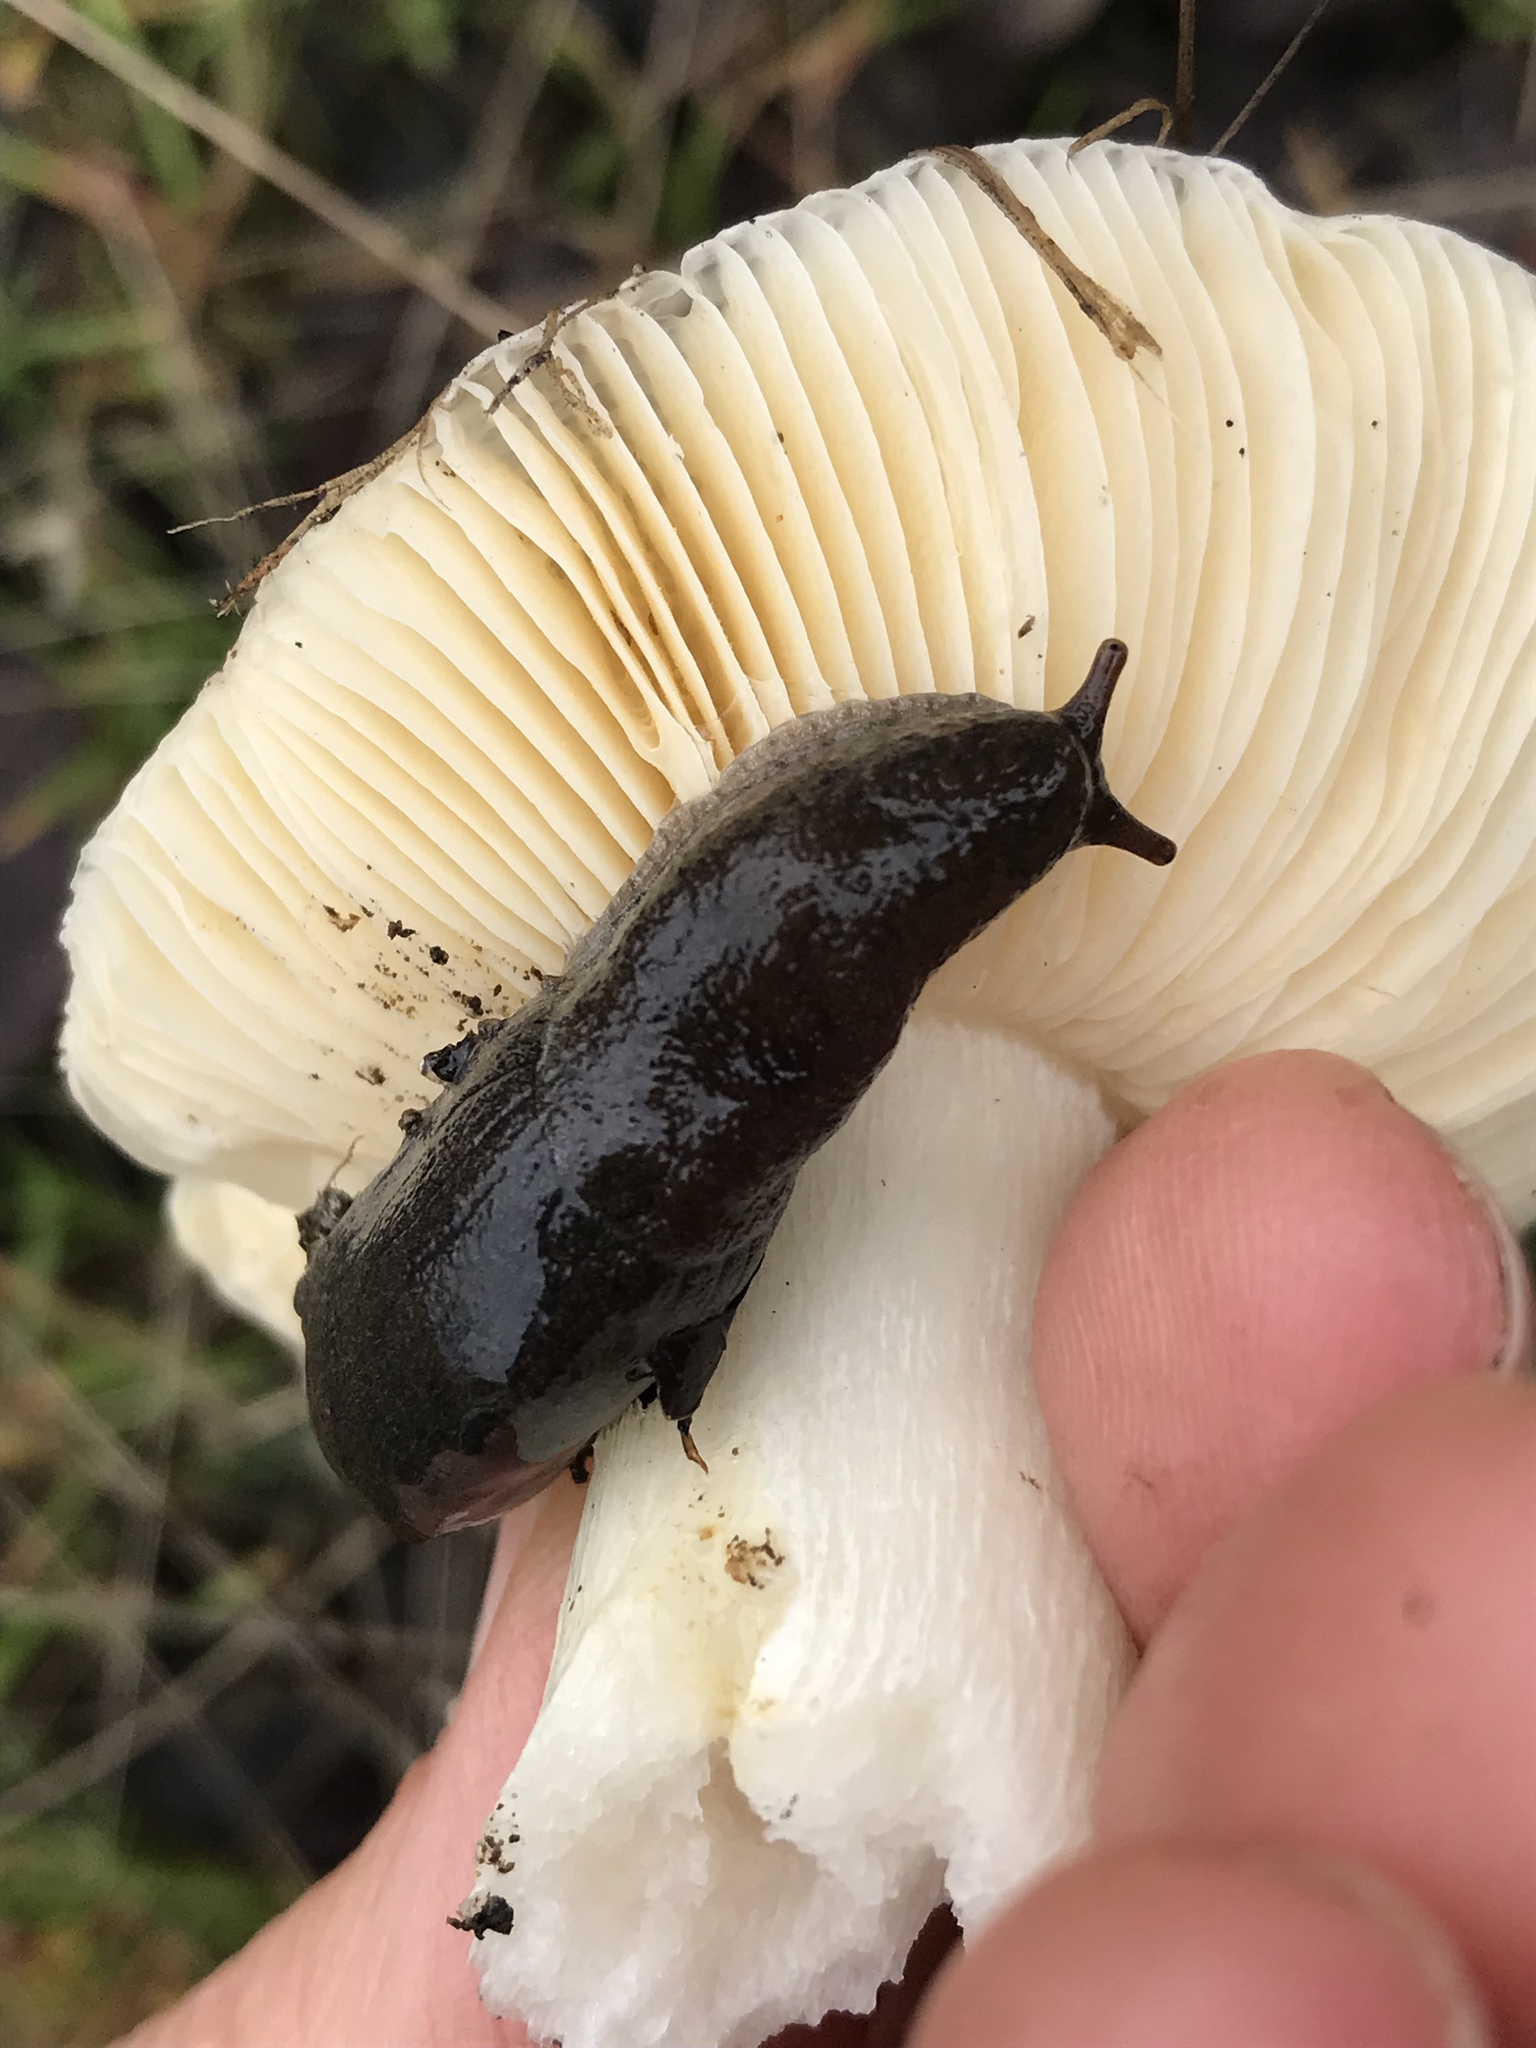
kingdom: Animalia
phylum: Mollusca
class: Gastropoda
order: Stylommatophora
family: Ariolimacidae
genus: Hesperarion
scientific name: Hesperarion niger
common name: Black western slug
